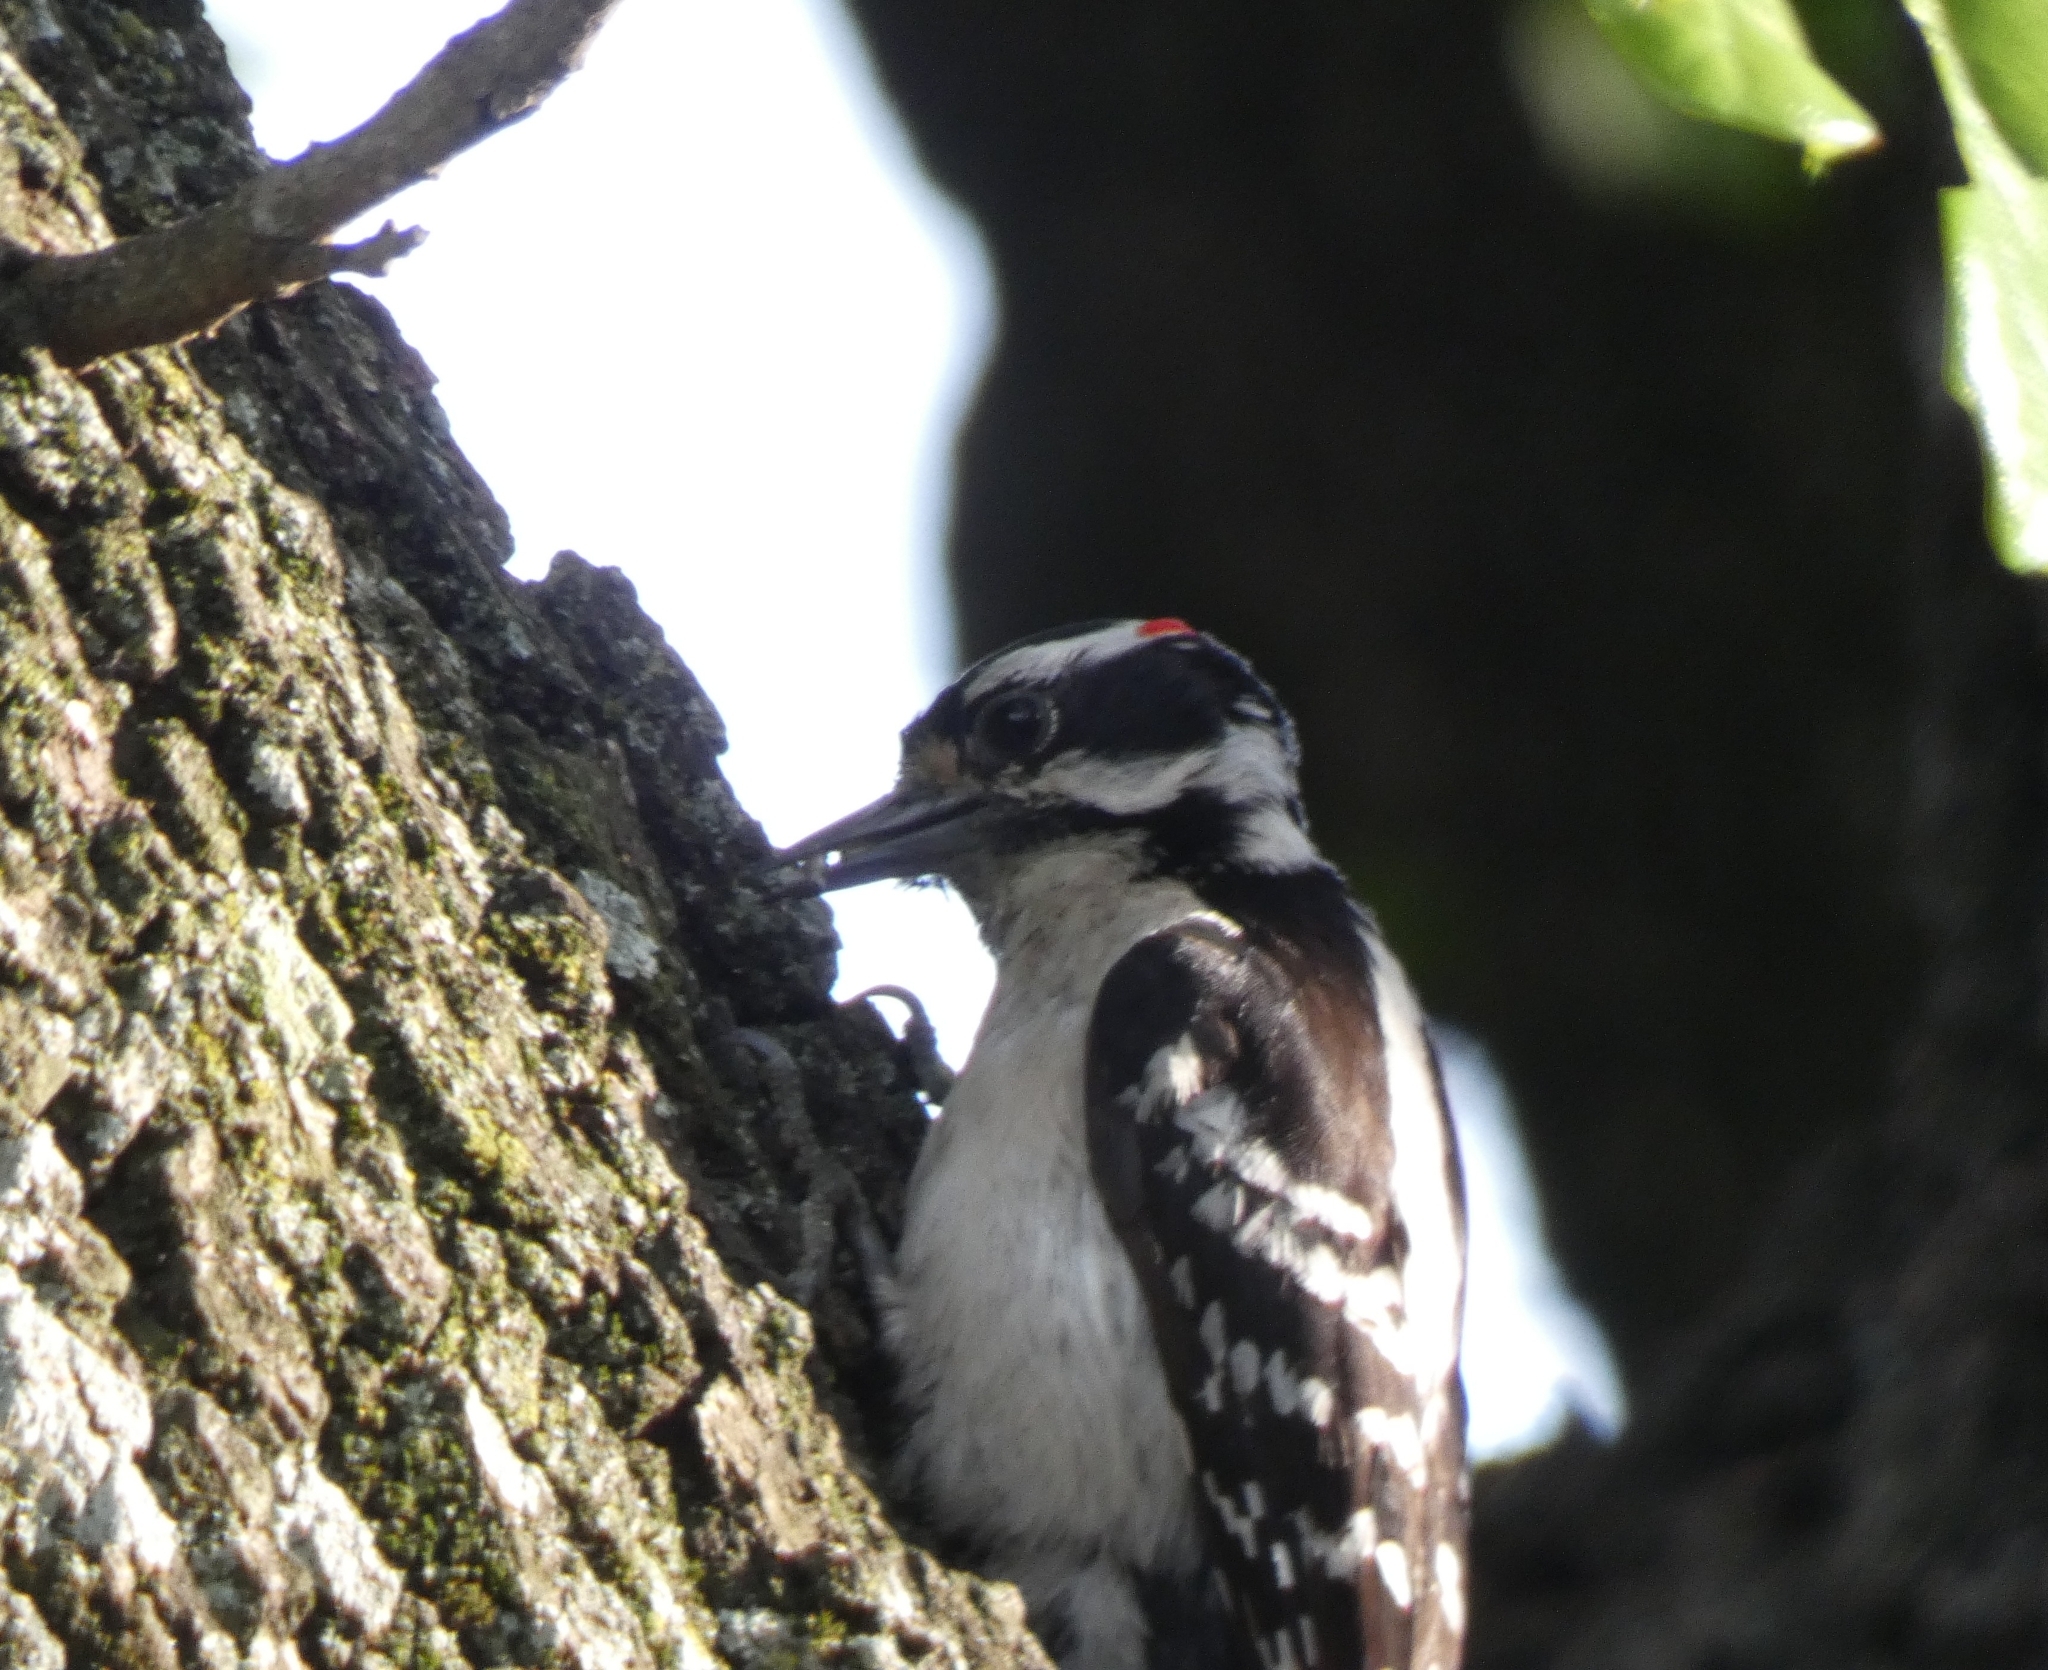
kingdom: Animalia
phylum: Chordata
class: Aves
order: Piciformes
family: Picidae
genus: Dryobates
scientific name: Dryobates pubescens
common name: Downy woodpecker
